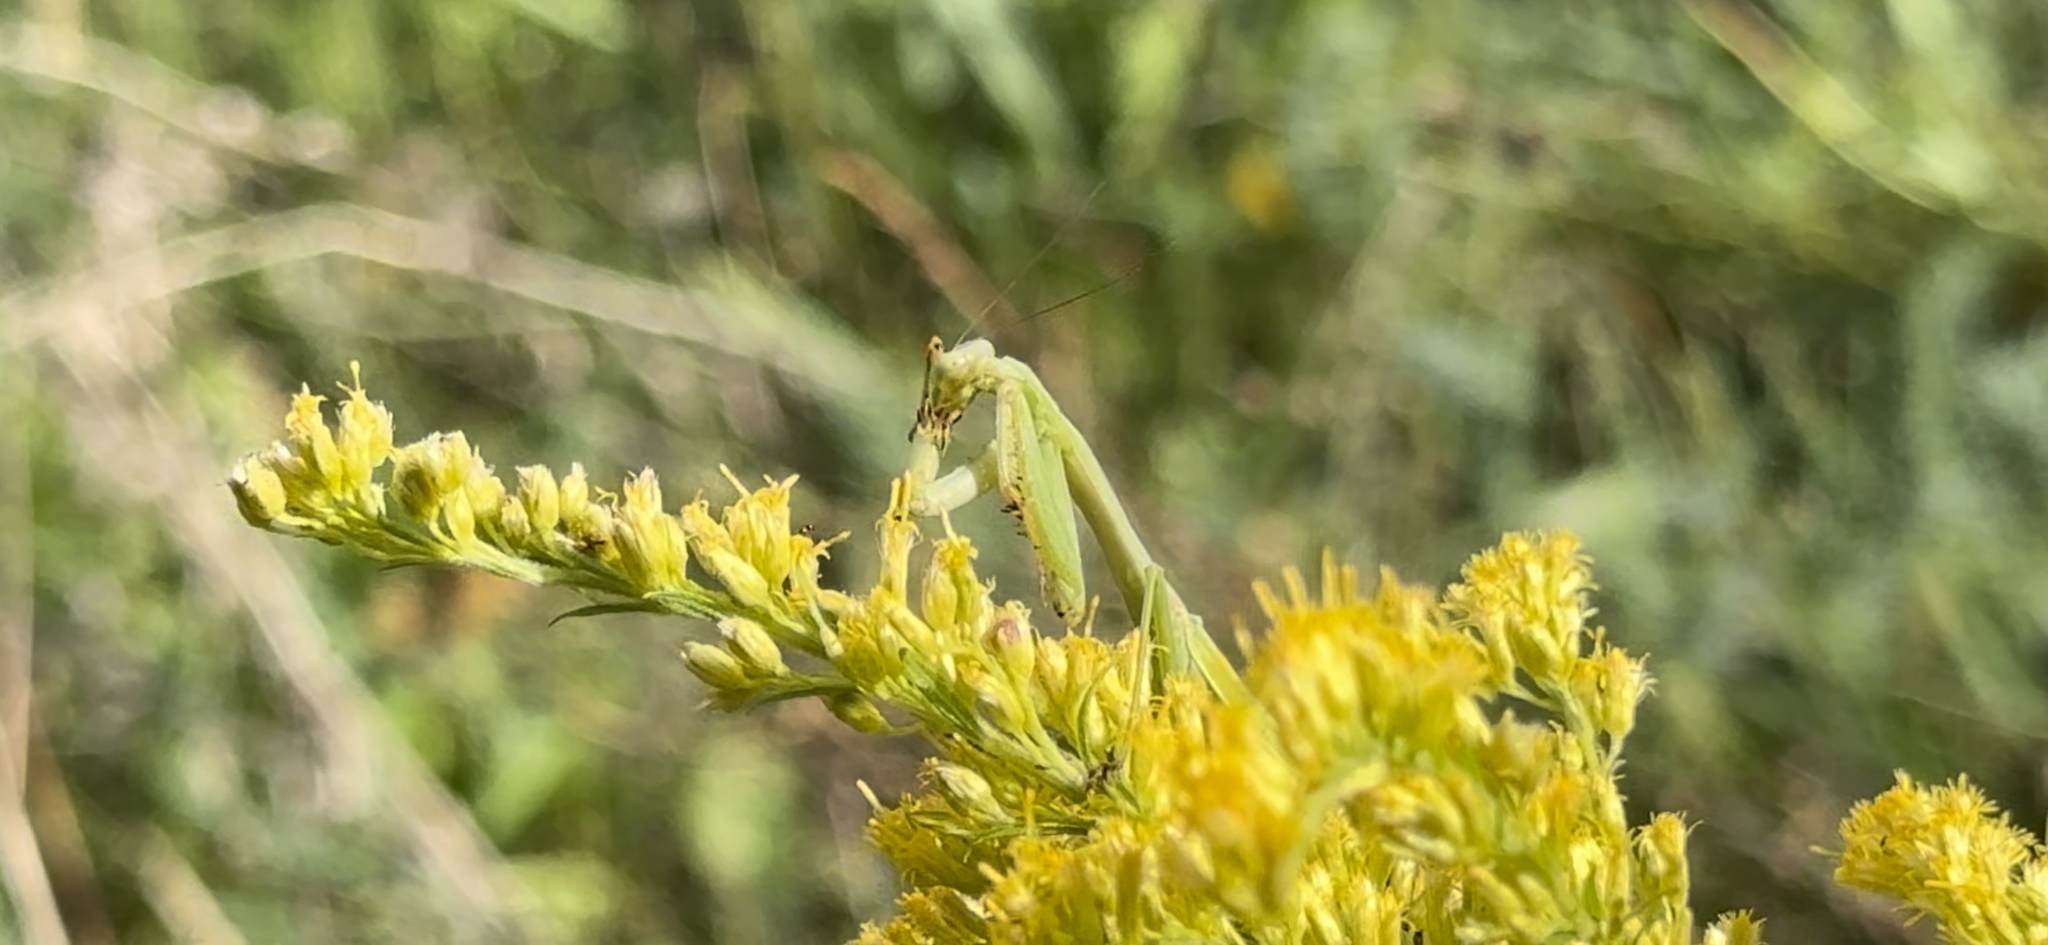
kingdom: Animalia
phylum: Arthropoda
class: Insecta
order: Mantodea
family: Mantidae
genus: Stagmomantis
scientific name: Stagmomantis carolina
